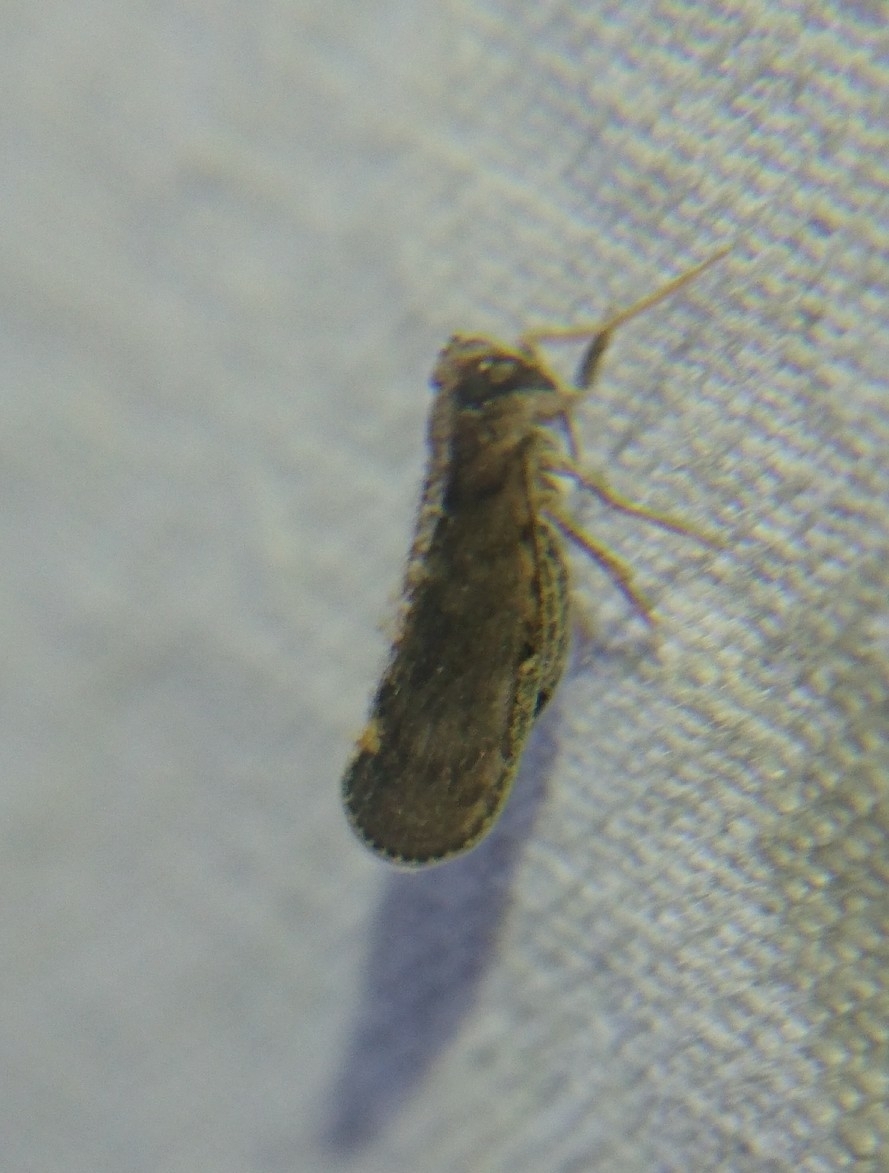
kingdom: Animalia
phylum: Arthropoda
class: Insecta
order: Hemiptera
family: Cixiidae
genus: Pintalia
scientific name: Pintalia vibex
